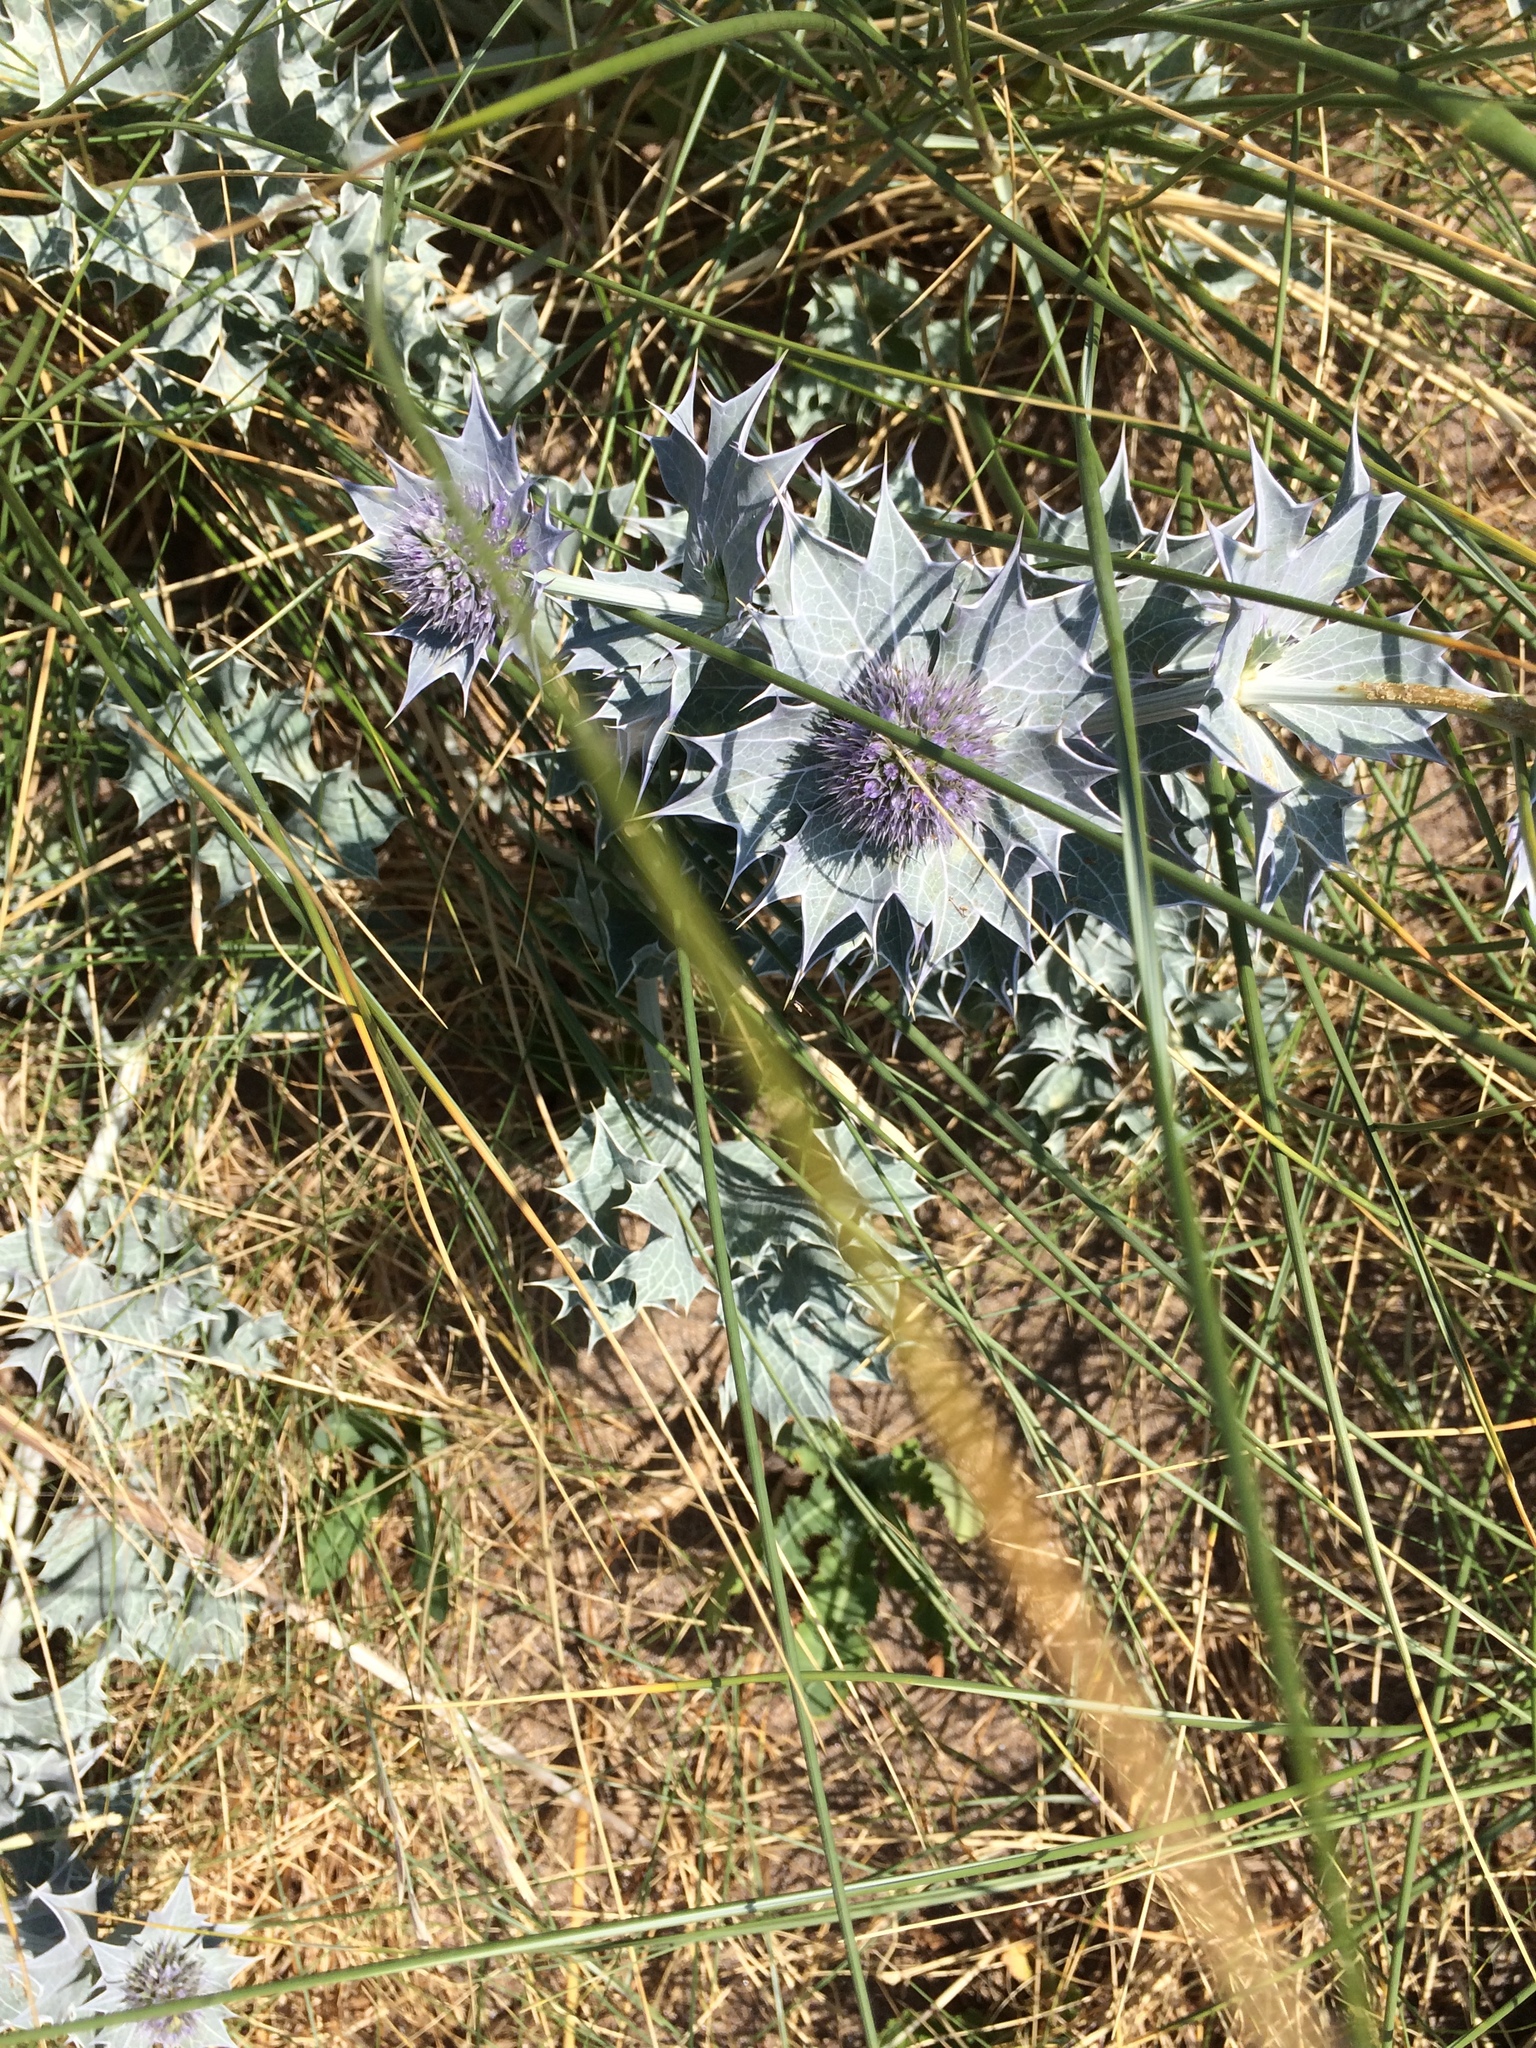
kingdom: Plantae
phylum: Tracheophyta
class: Magnoliopsida
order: Apiales
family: Apiaceae
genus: Eryngium
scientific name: Eryngium maritimum
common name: Sea-holly
